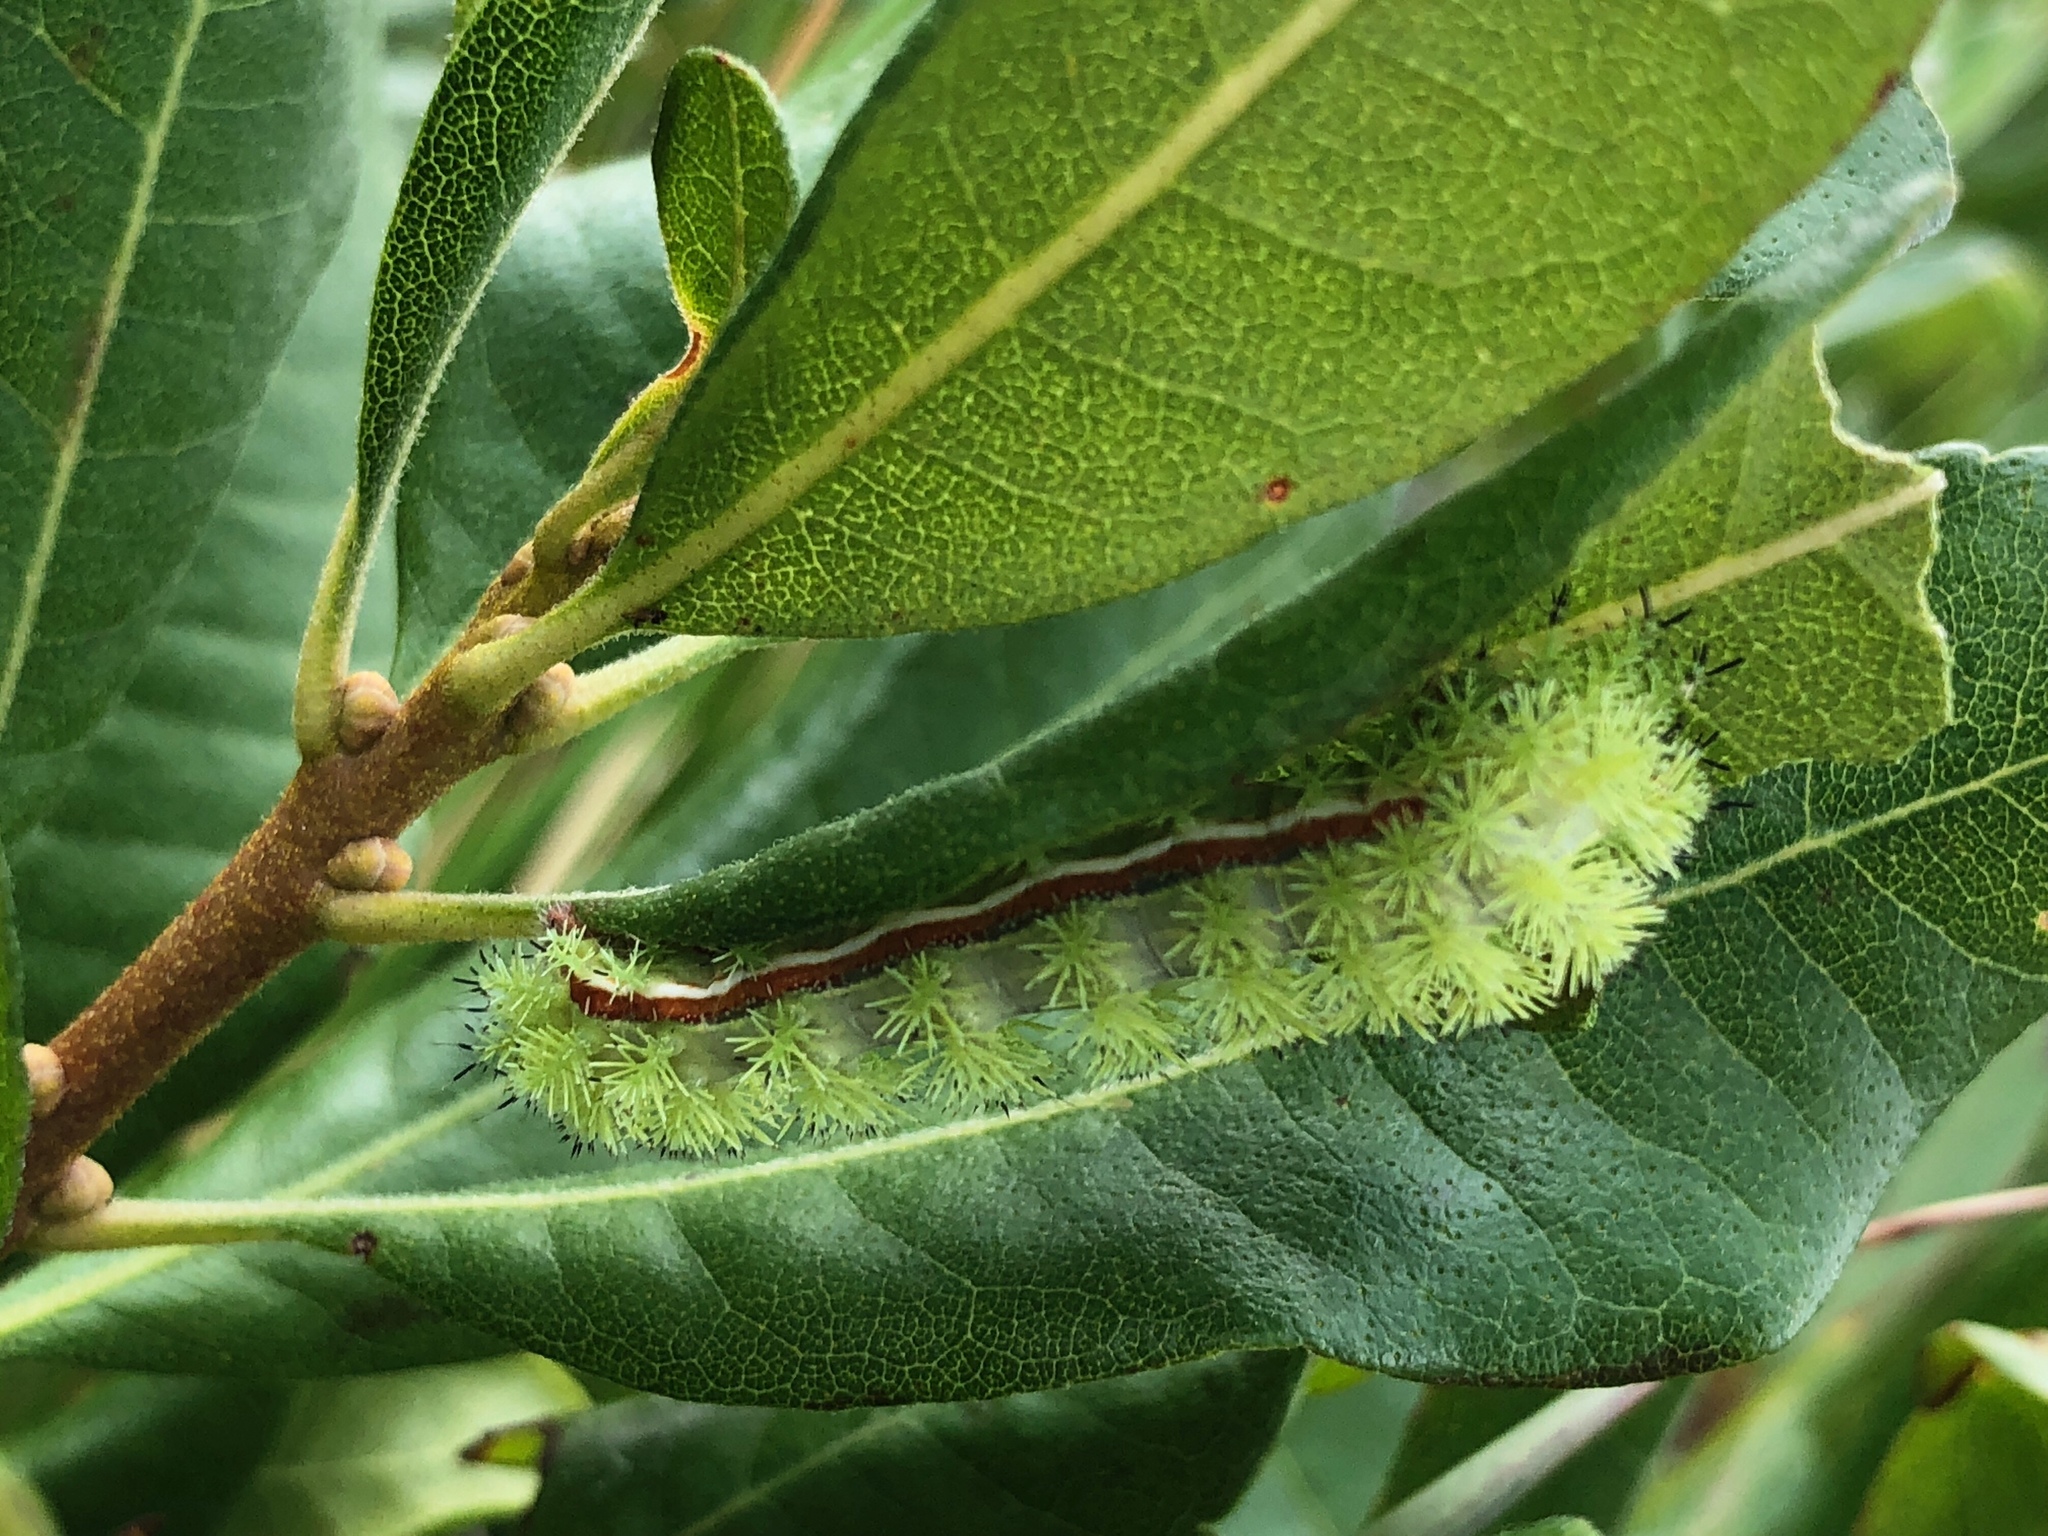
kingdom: Animalia
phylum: Arthropoda
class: Insecta
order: Lepidoptera
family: Saturniidae
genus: Automeris
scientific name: Automeris io
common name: Io moth
